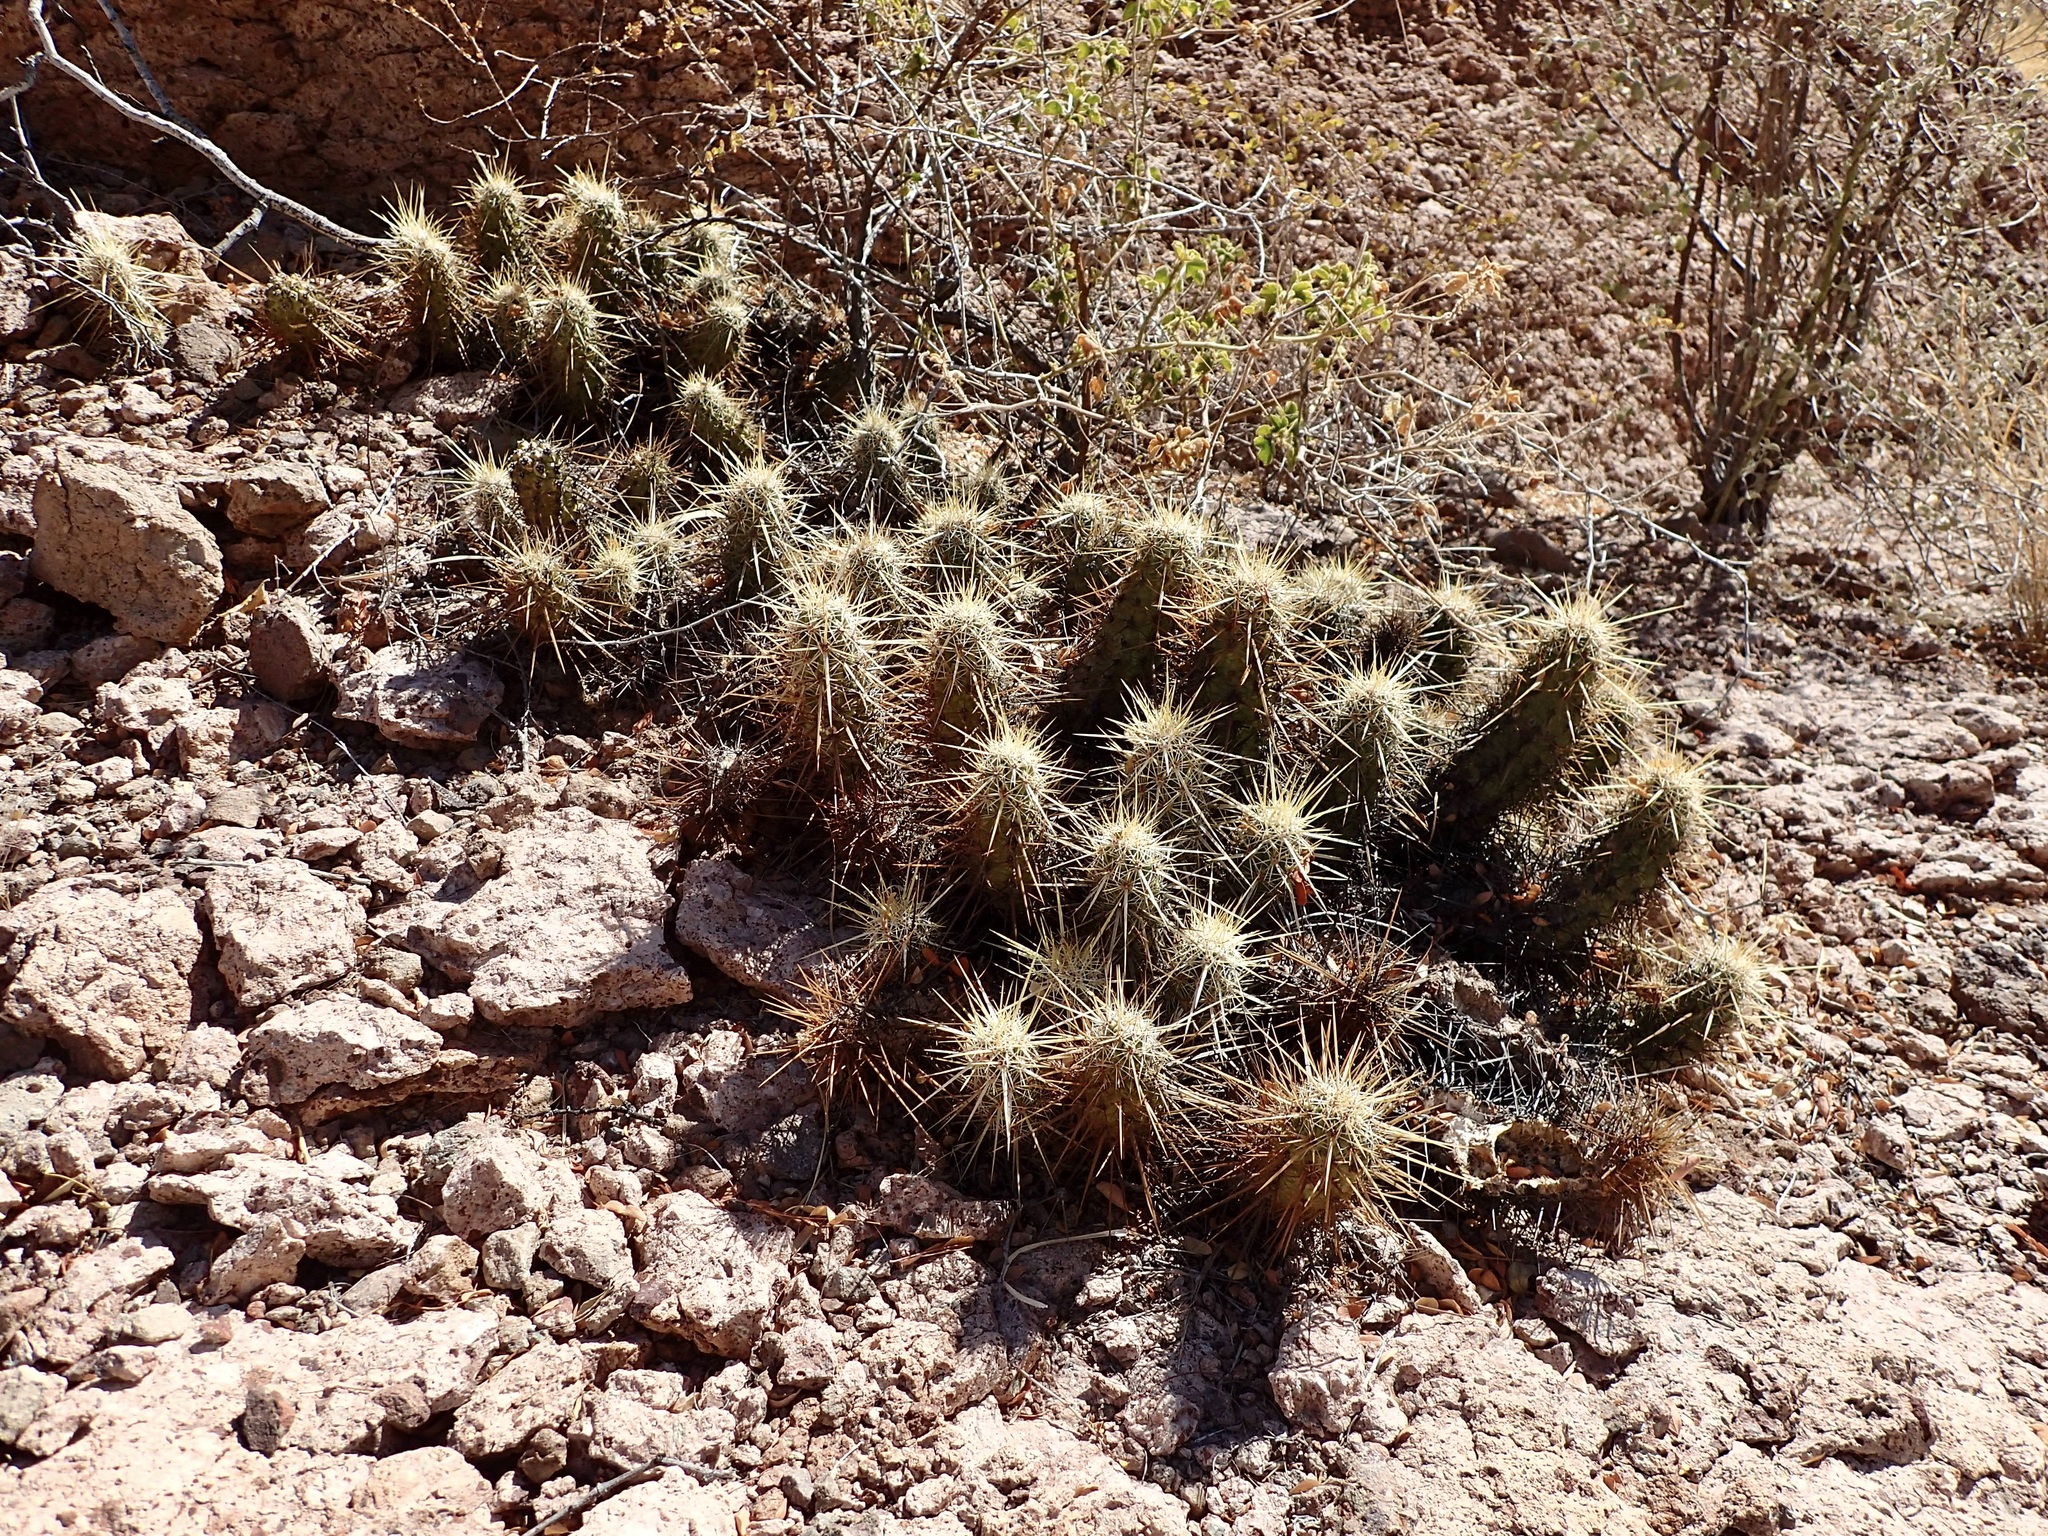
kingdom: Plantae
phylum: Tracheophyta
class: Magnoliopsida
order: Caryophyllales
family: Cactaceae
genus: Echinocereus
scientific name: Echinocereus brandegeei
